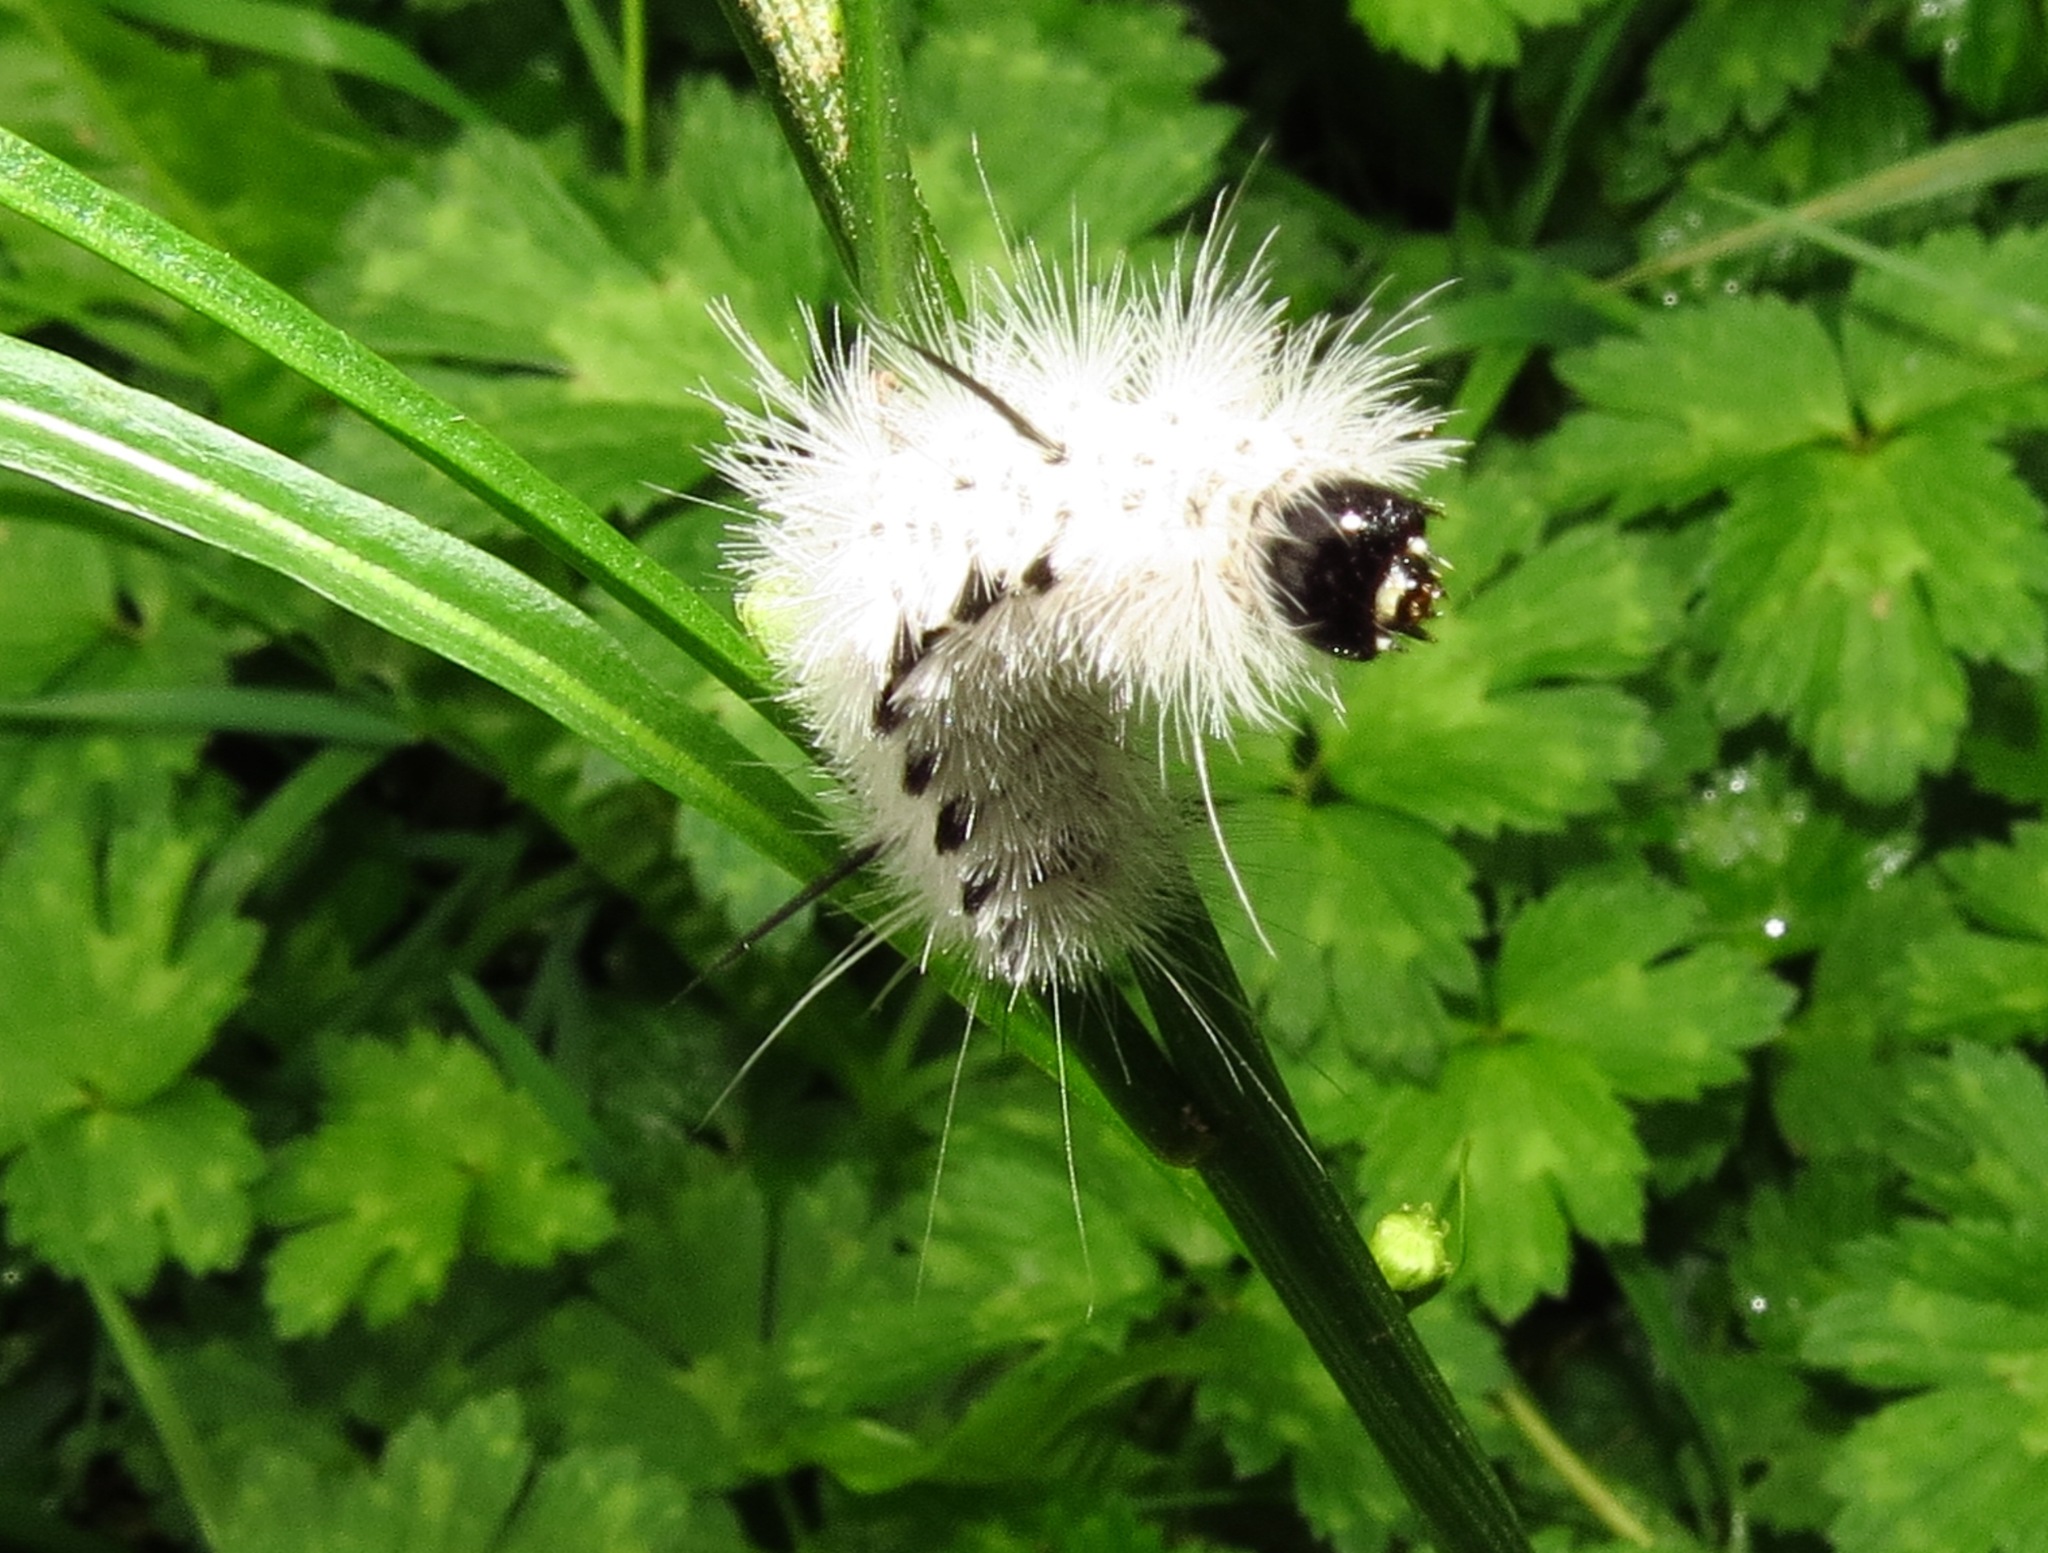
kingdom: Animalia
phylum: Arthropoda
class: Insecta
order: Lepidoptera
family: Erebidae
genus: Lophocampa
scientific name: Lophocampa caryae
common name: Hickory tussock moth
